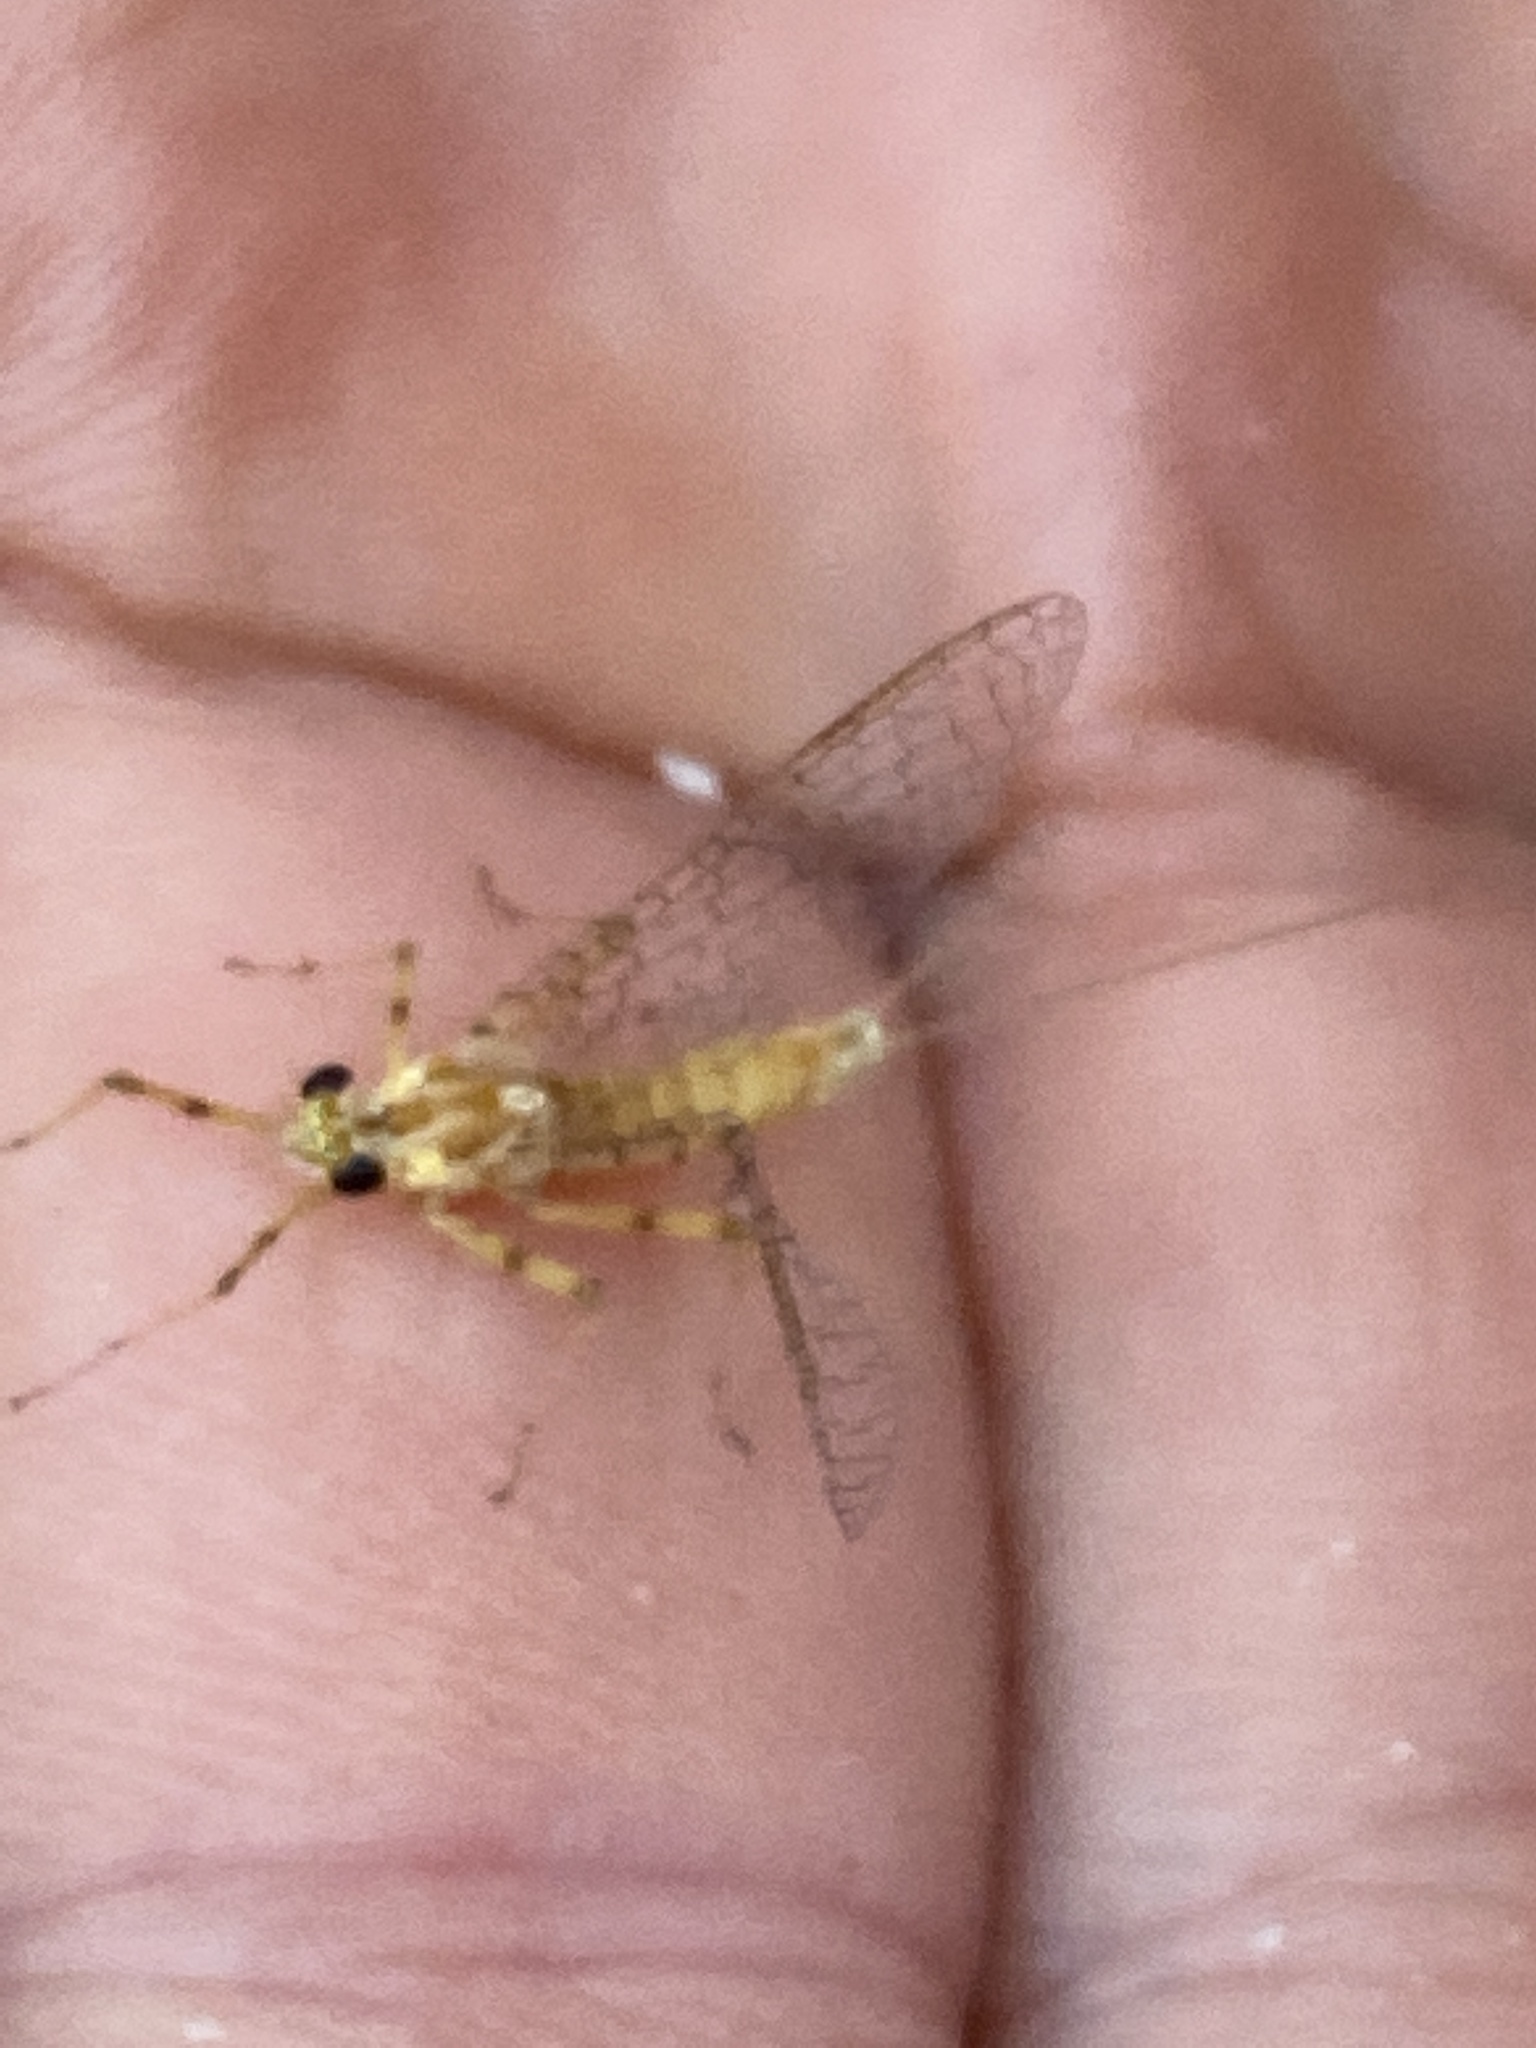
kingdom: Animalia
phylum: Arthropoda
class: Insecta
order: Ephemeroptera
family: Heptageniidae
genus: Stenonema
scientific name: Stenonema femoratum
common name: Dark cahill
